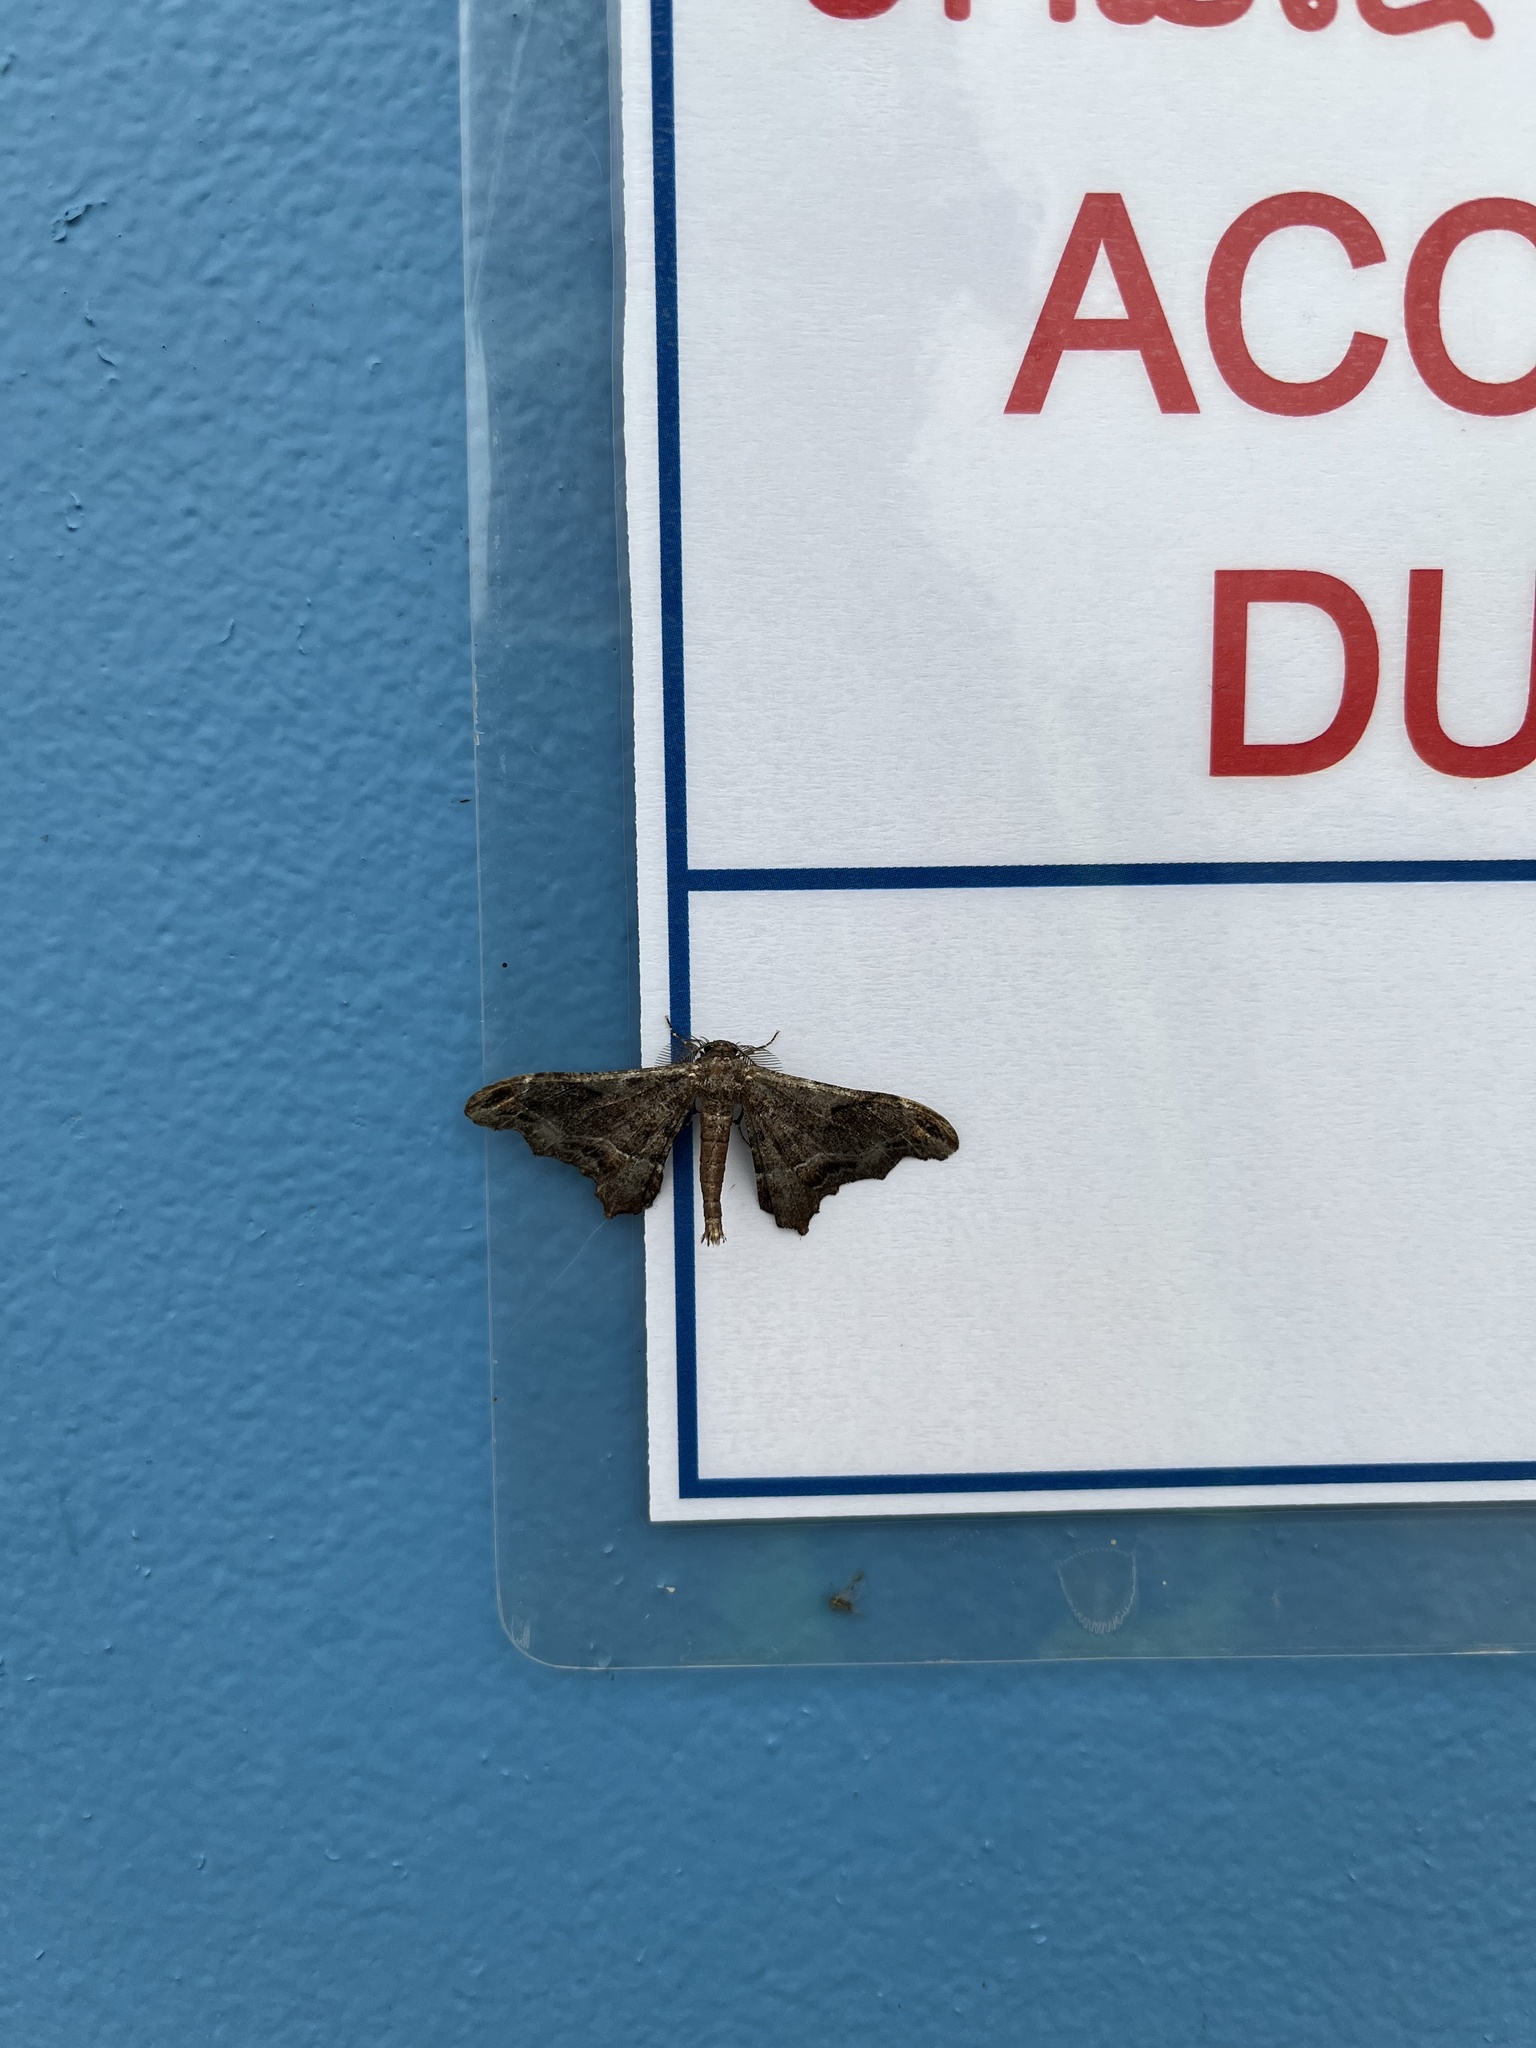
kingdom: Animalia
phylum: Arthropoda
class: Insecta
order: Lepidoptera
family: Geometridae
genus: Hyposidra
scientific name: Hyposidra violescens
